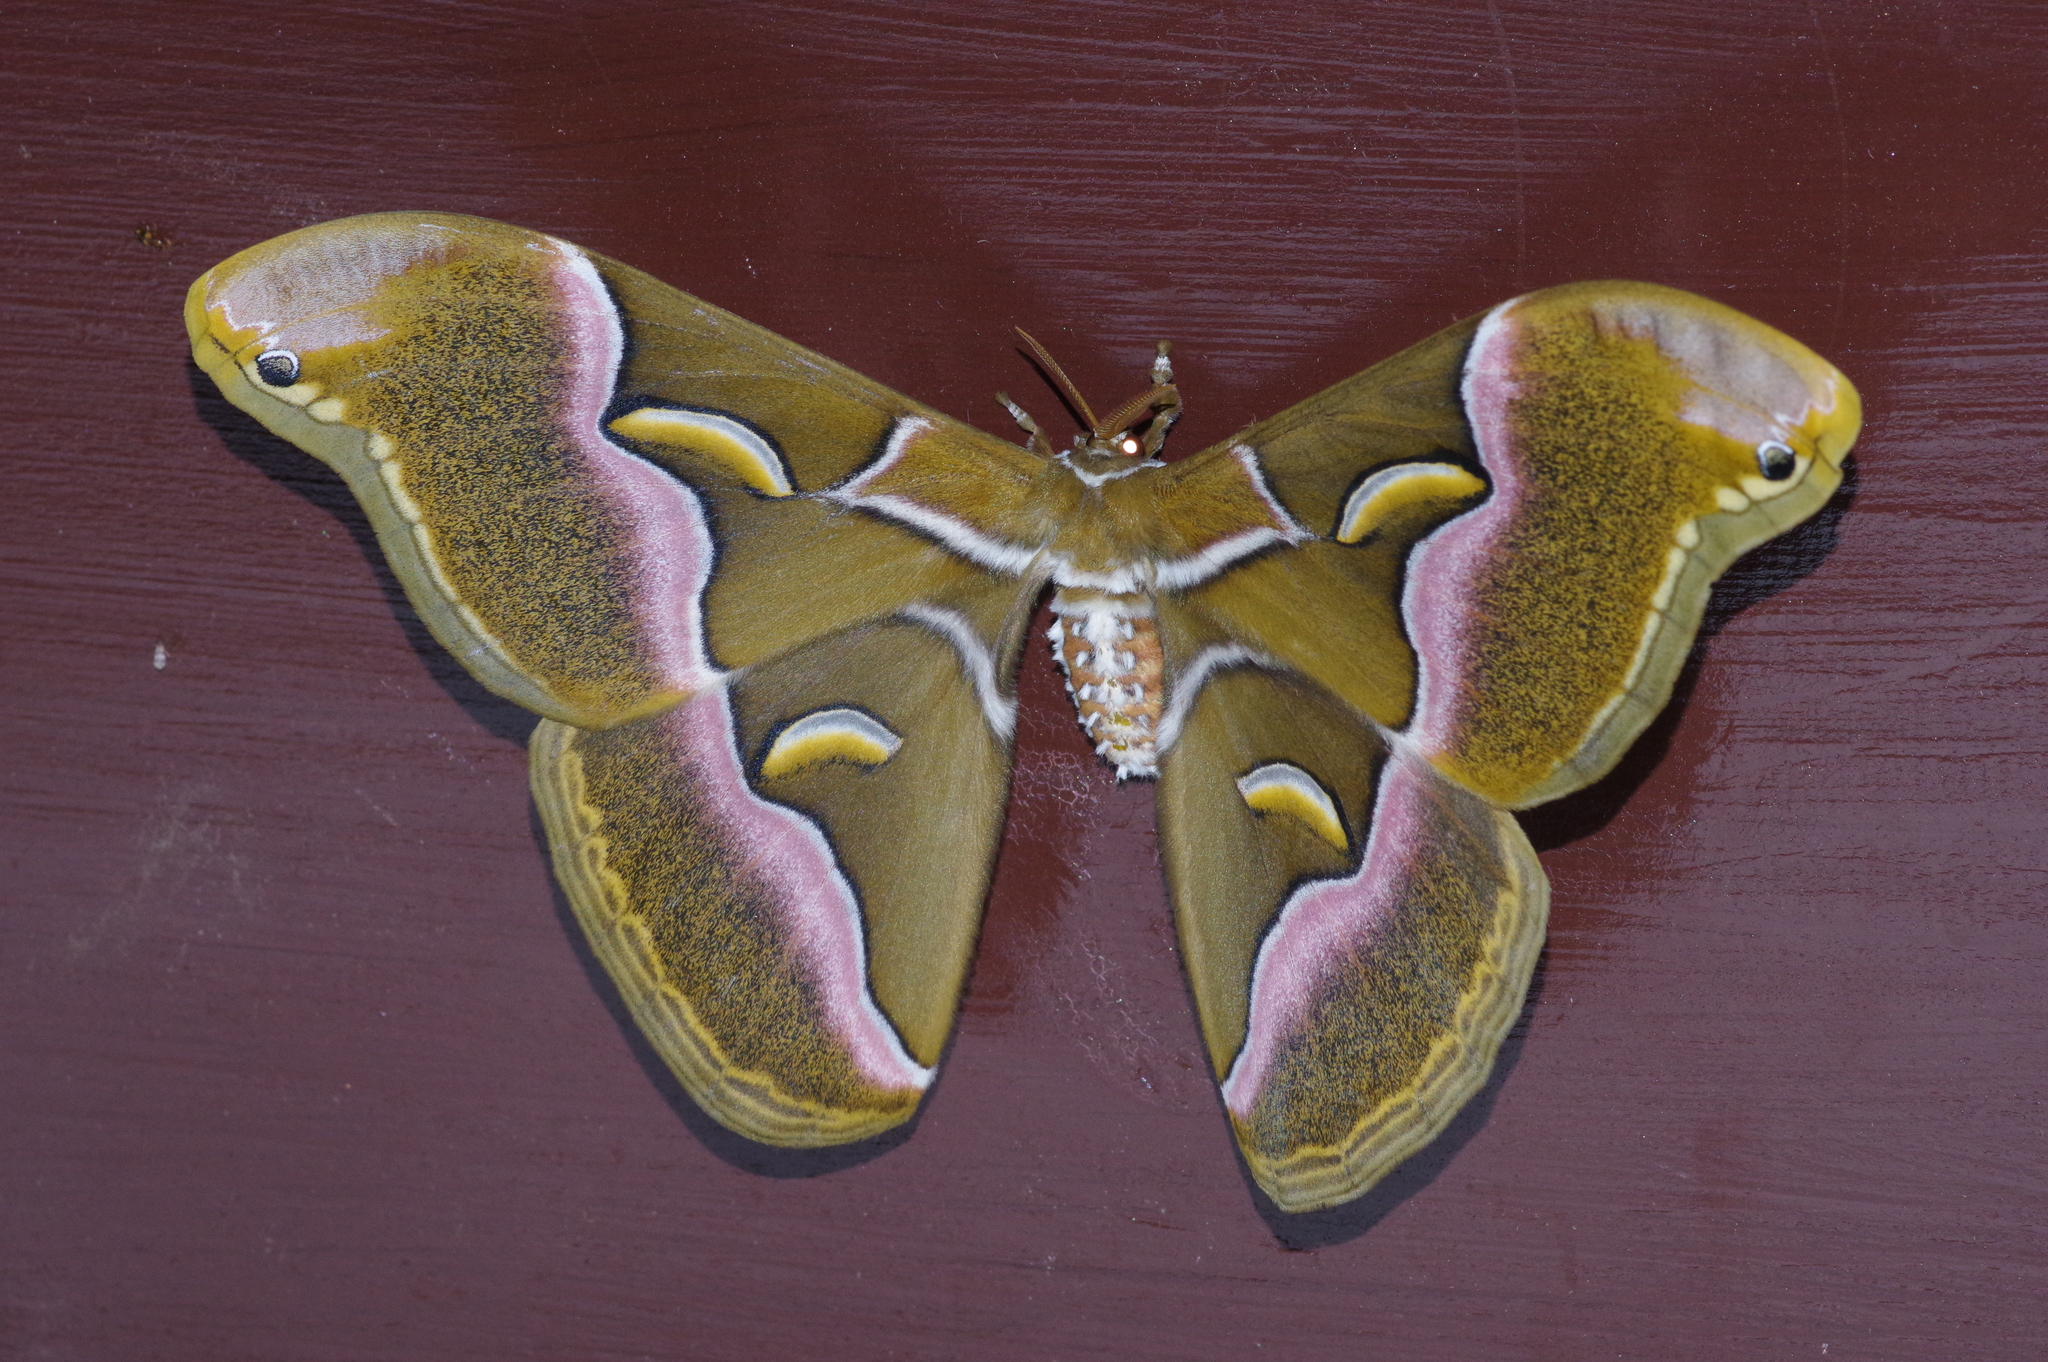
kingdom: Animalia
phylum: Arthropoda
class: Insecta
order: Lepidoptera
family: Saturniidae
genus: Samia
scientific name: Samia cynthia
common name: Ailanthus silkmoth
